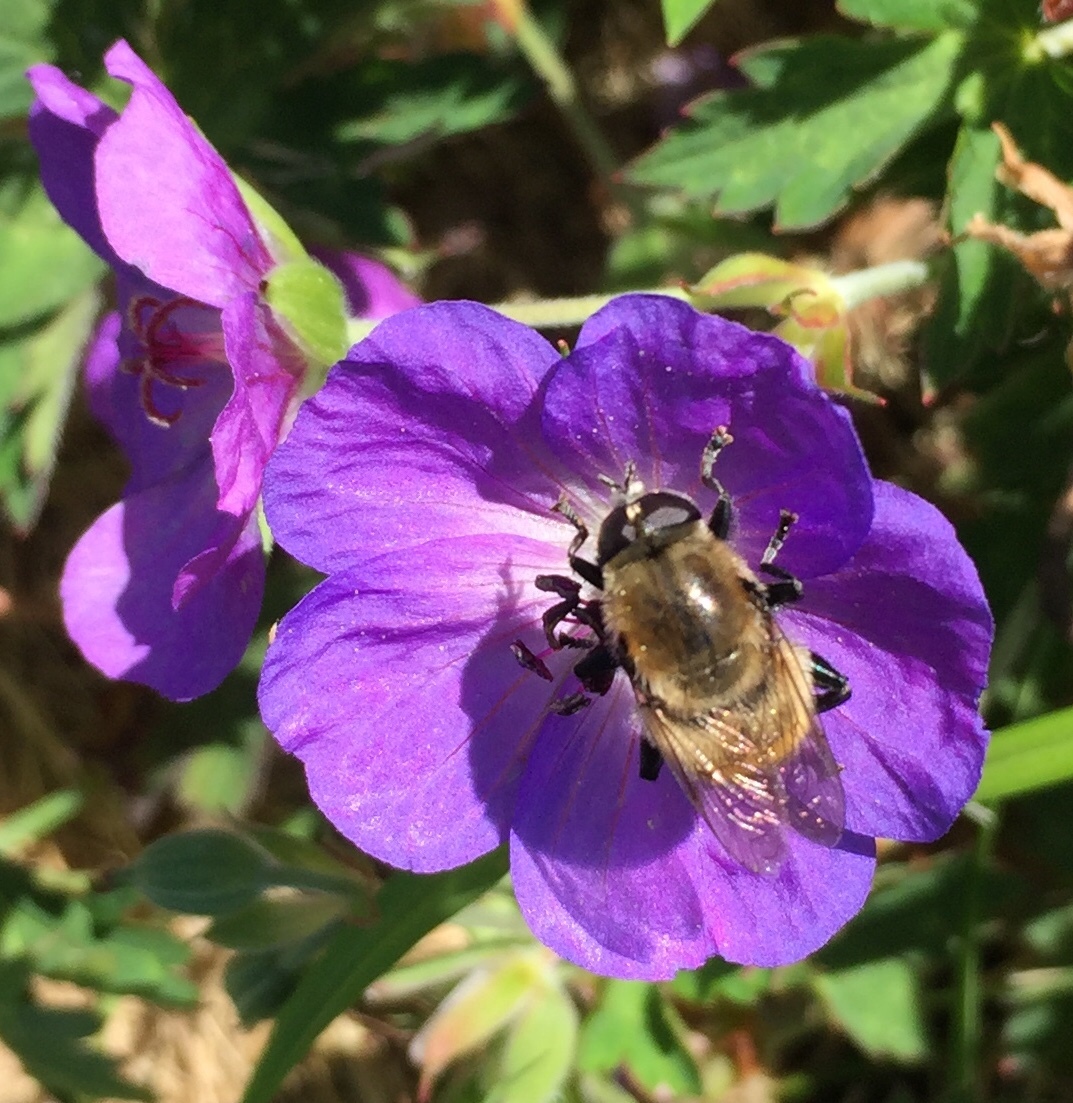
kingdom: Animalia
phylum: Arthropoda
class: Insecta
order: Diptera
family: Syrphidae
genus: Merodon
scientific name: Merodon equestris
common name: Greater bulb-fly
